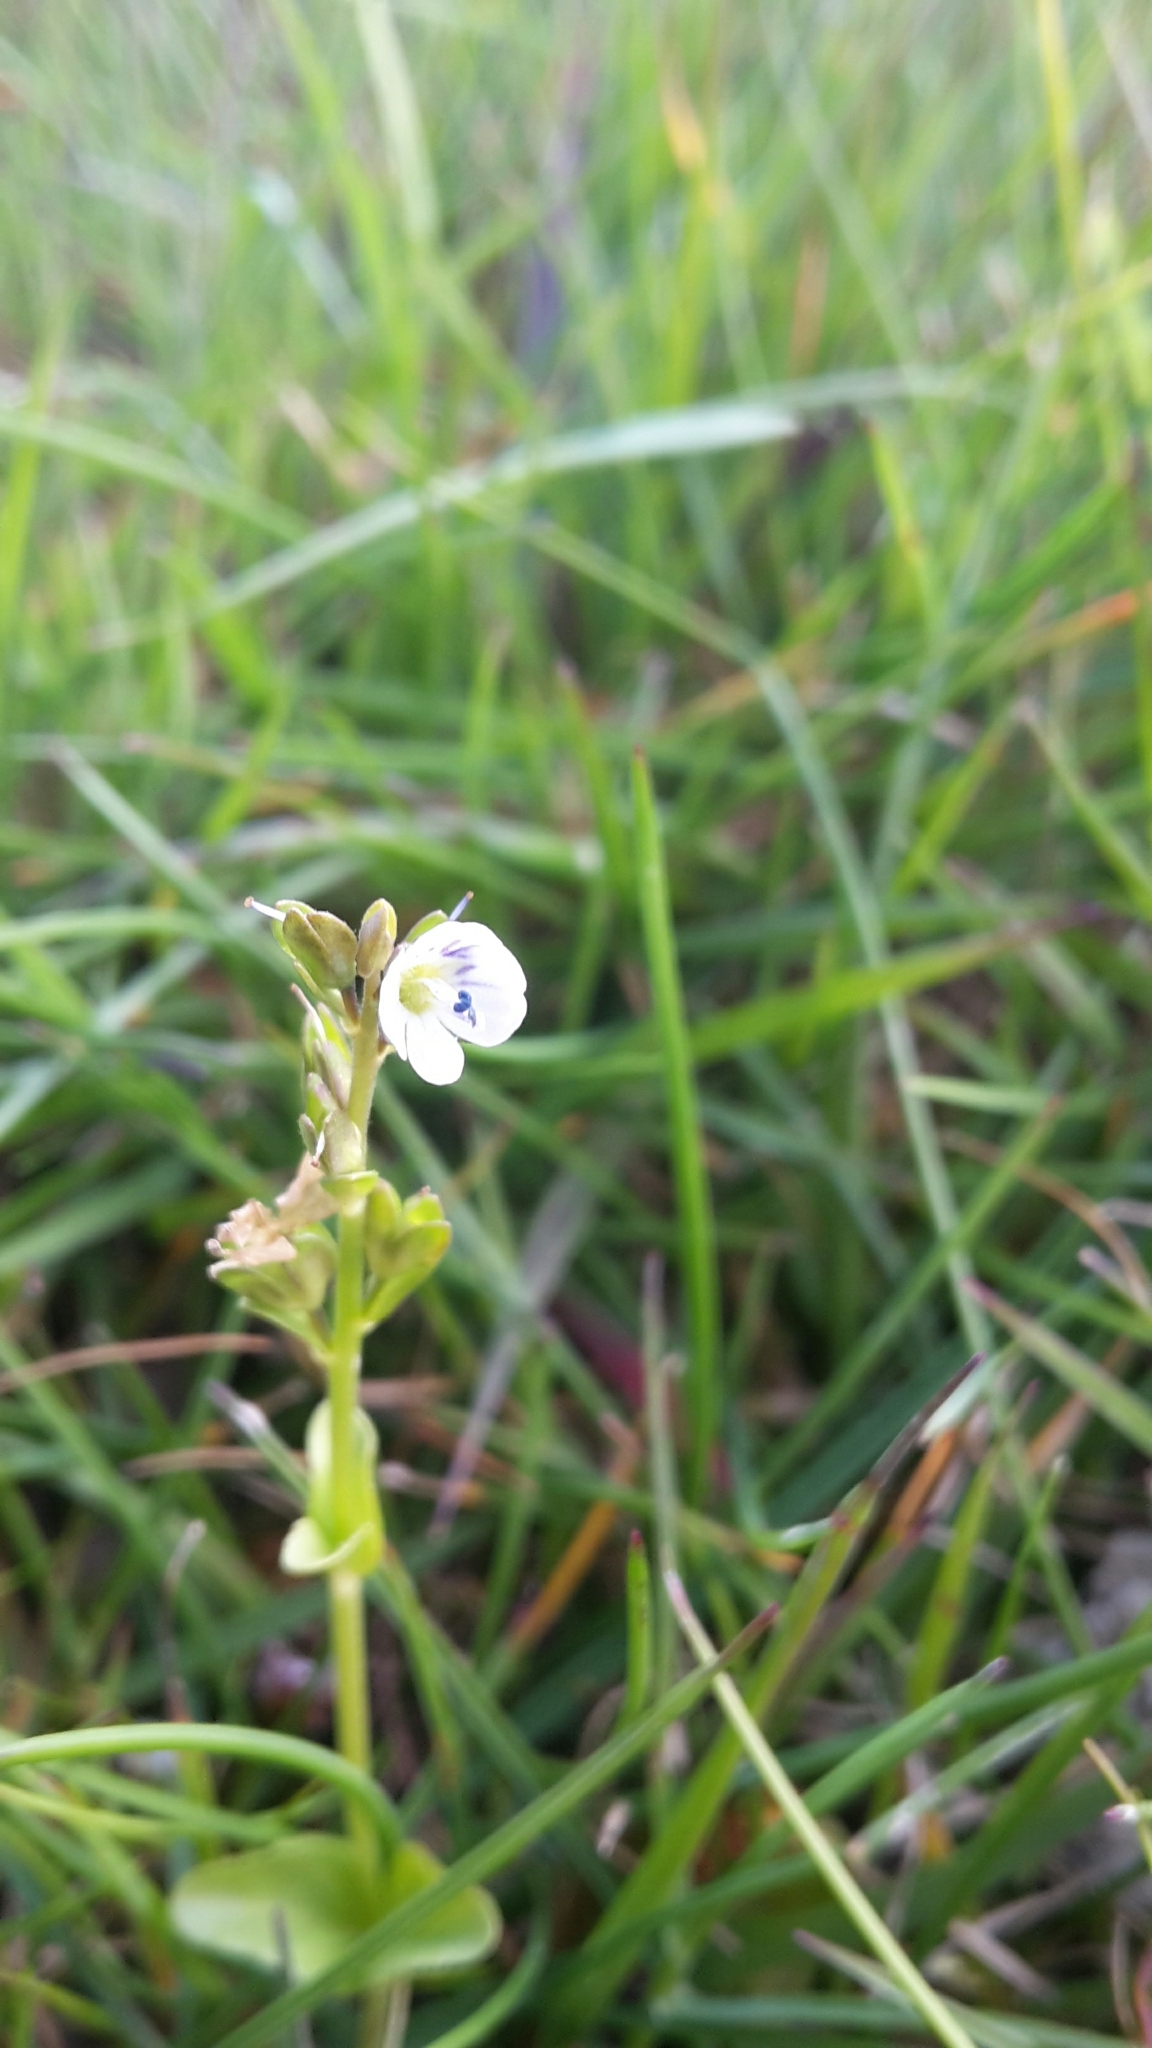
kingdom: Plantae
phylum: Tracheophyta
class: Magnoliopsida
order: Lamiales
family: Plantaginaceae
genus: Veronica
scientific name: Veronica serpyllifolia
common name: Thyme-leaved speedwell
